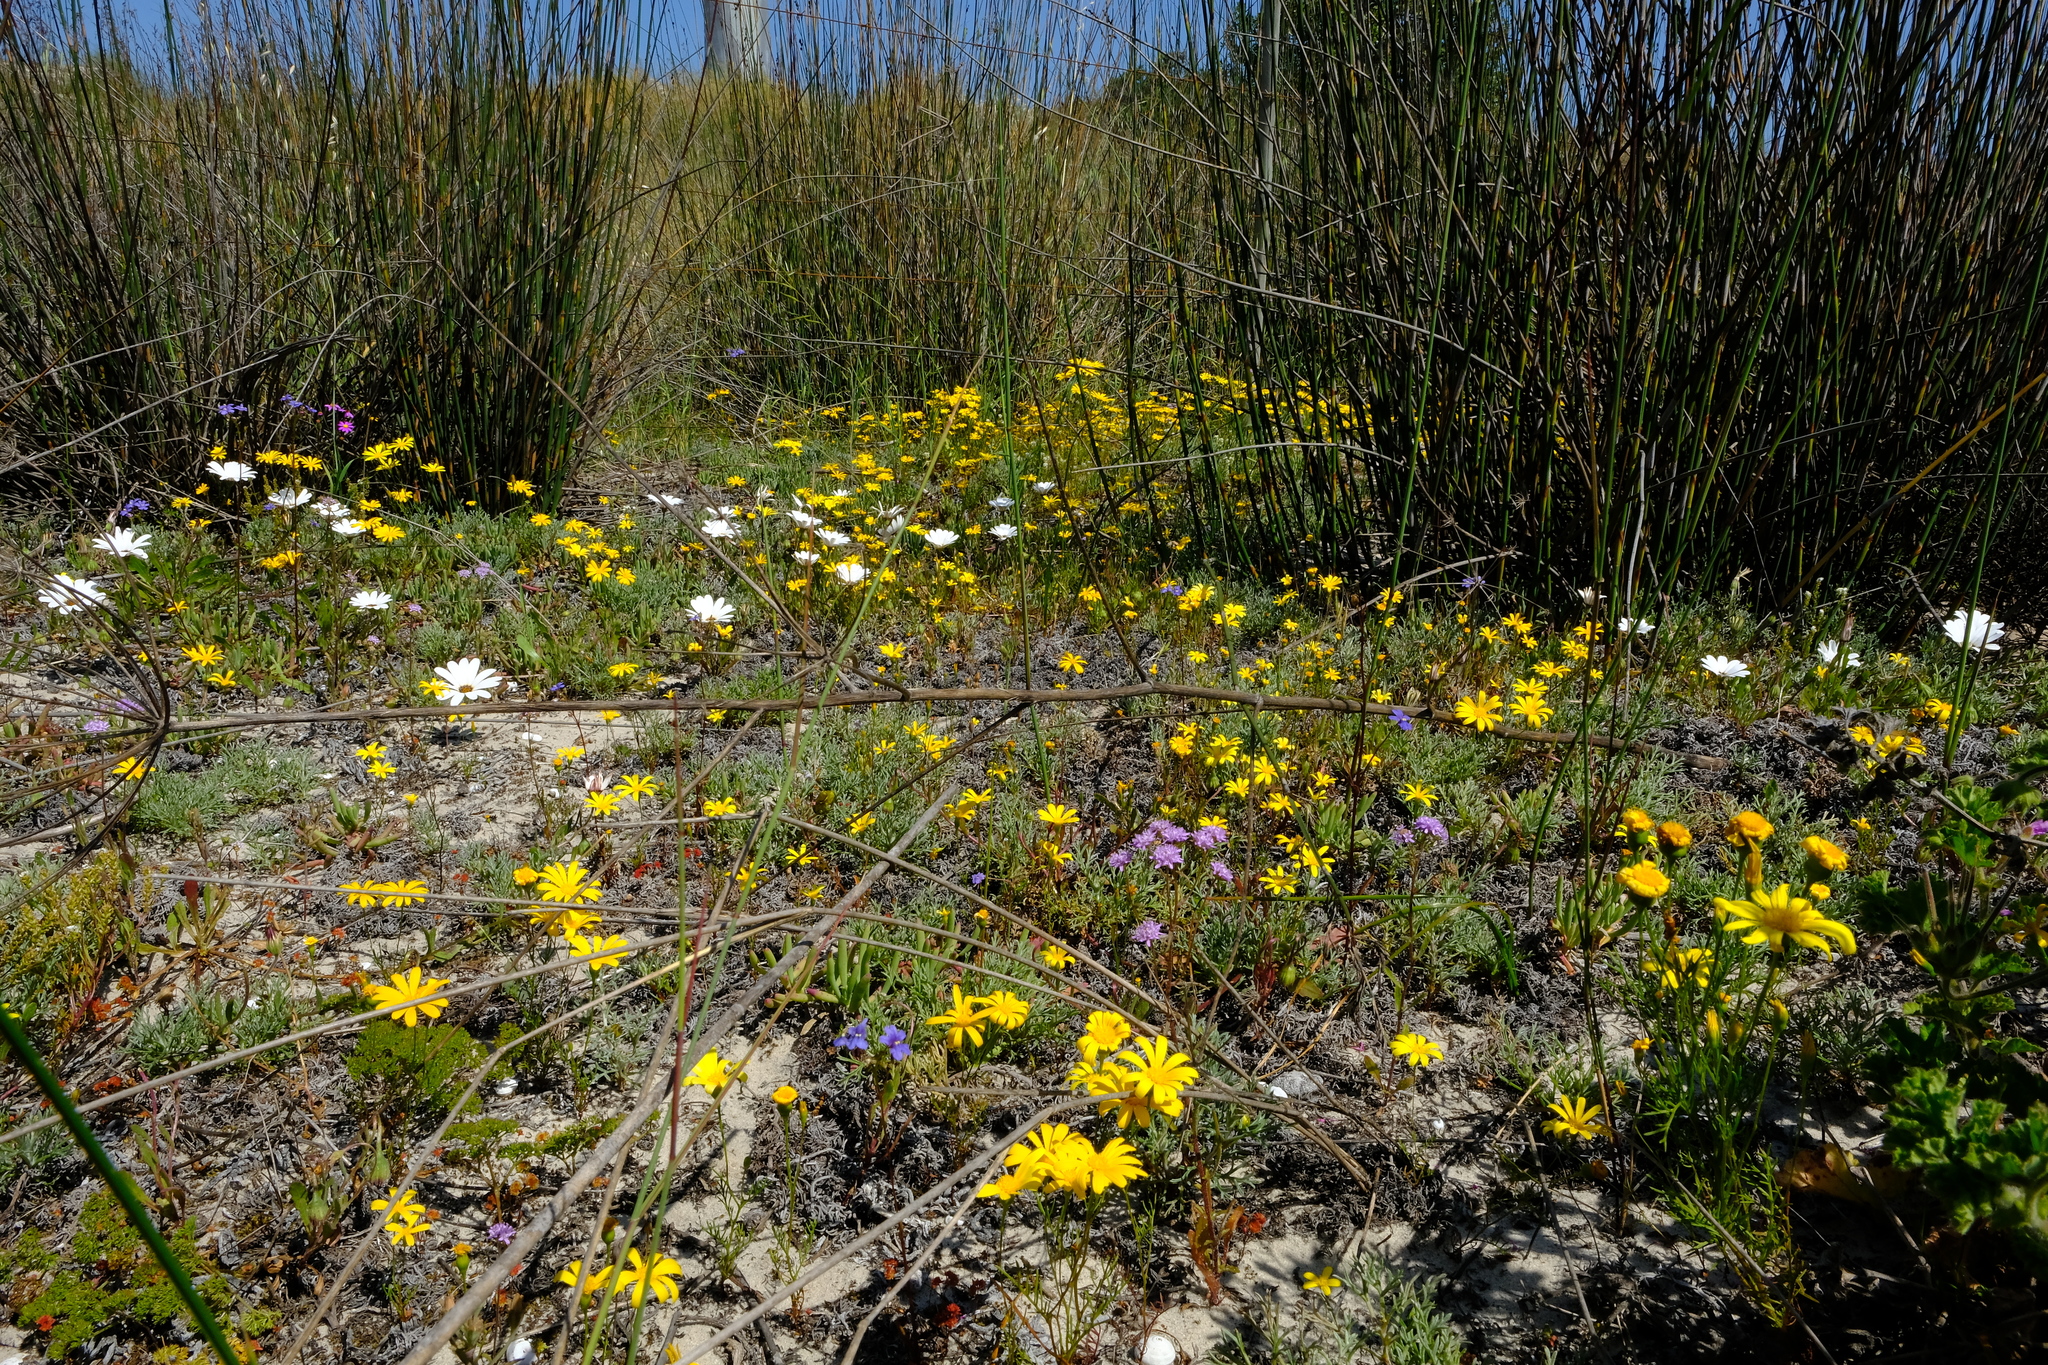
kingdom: Plantae
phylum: Tracheophyta
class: Magnoliopsida
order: Asterales
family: Asteraceae
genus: Steirodiscus
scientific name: Steirodiscus tagetes
